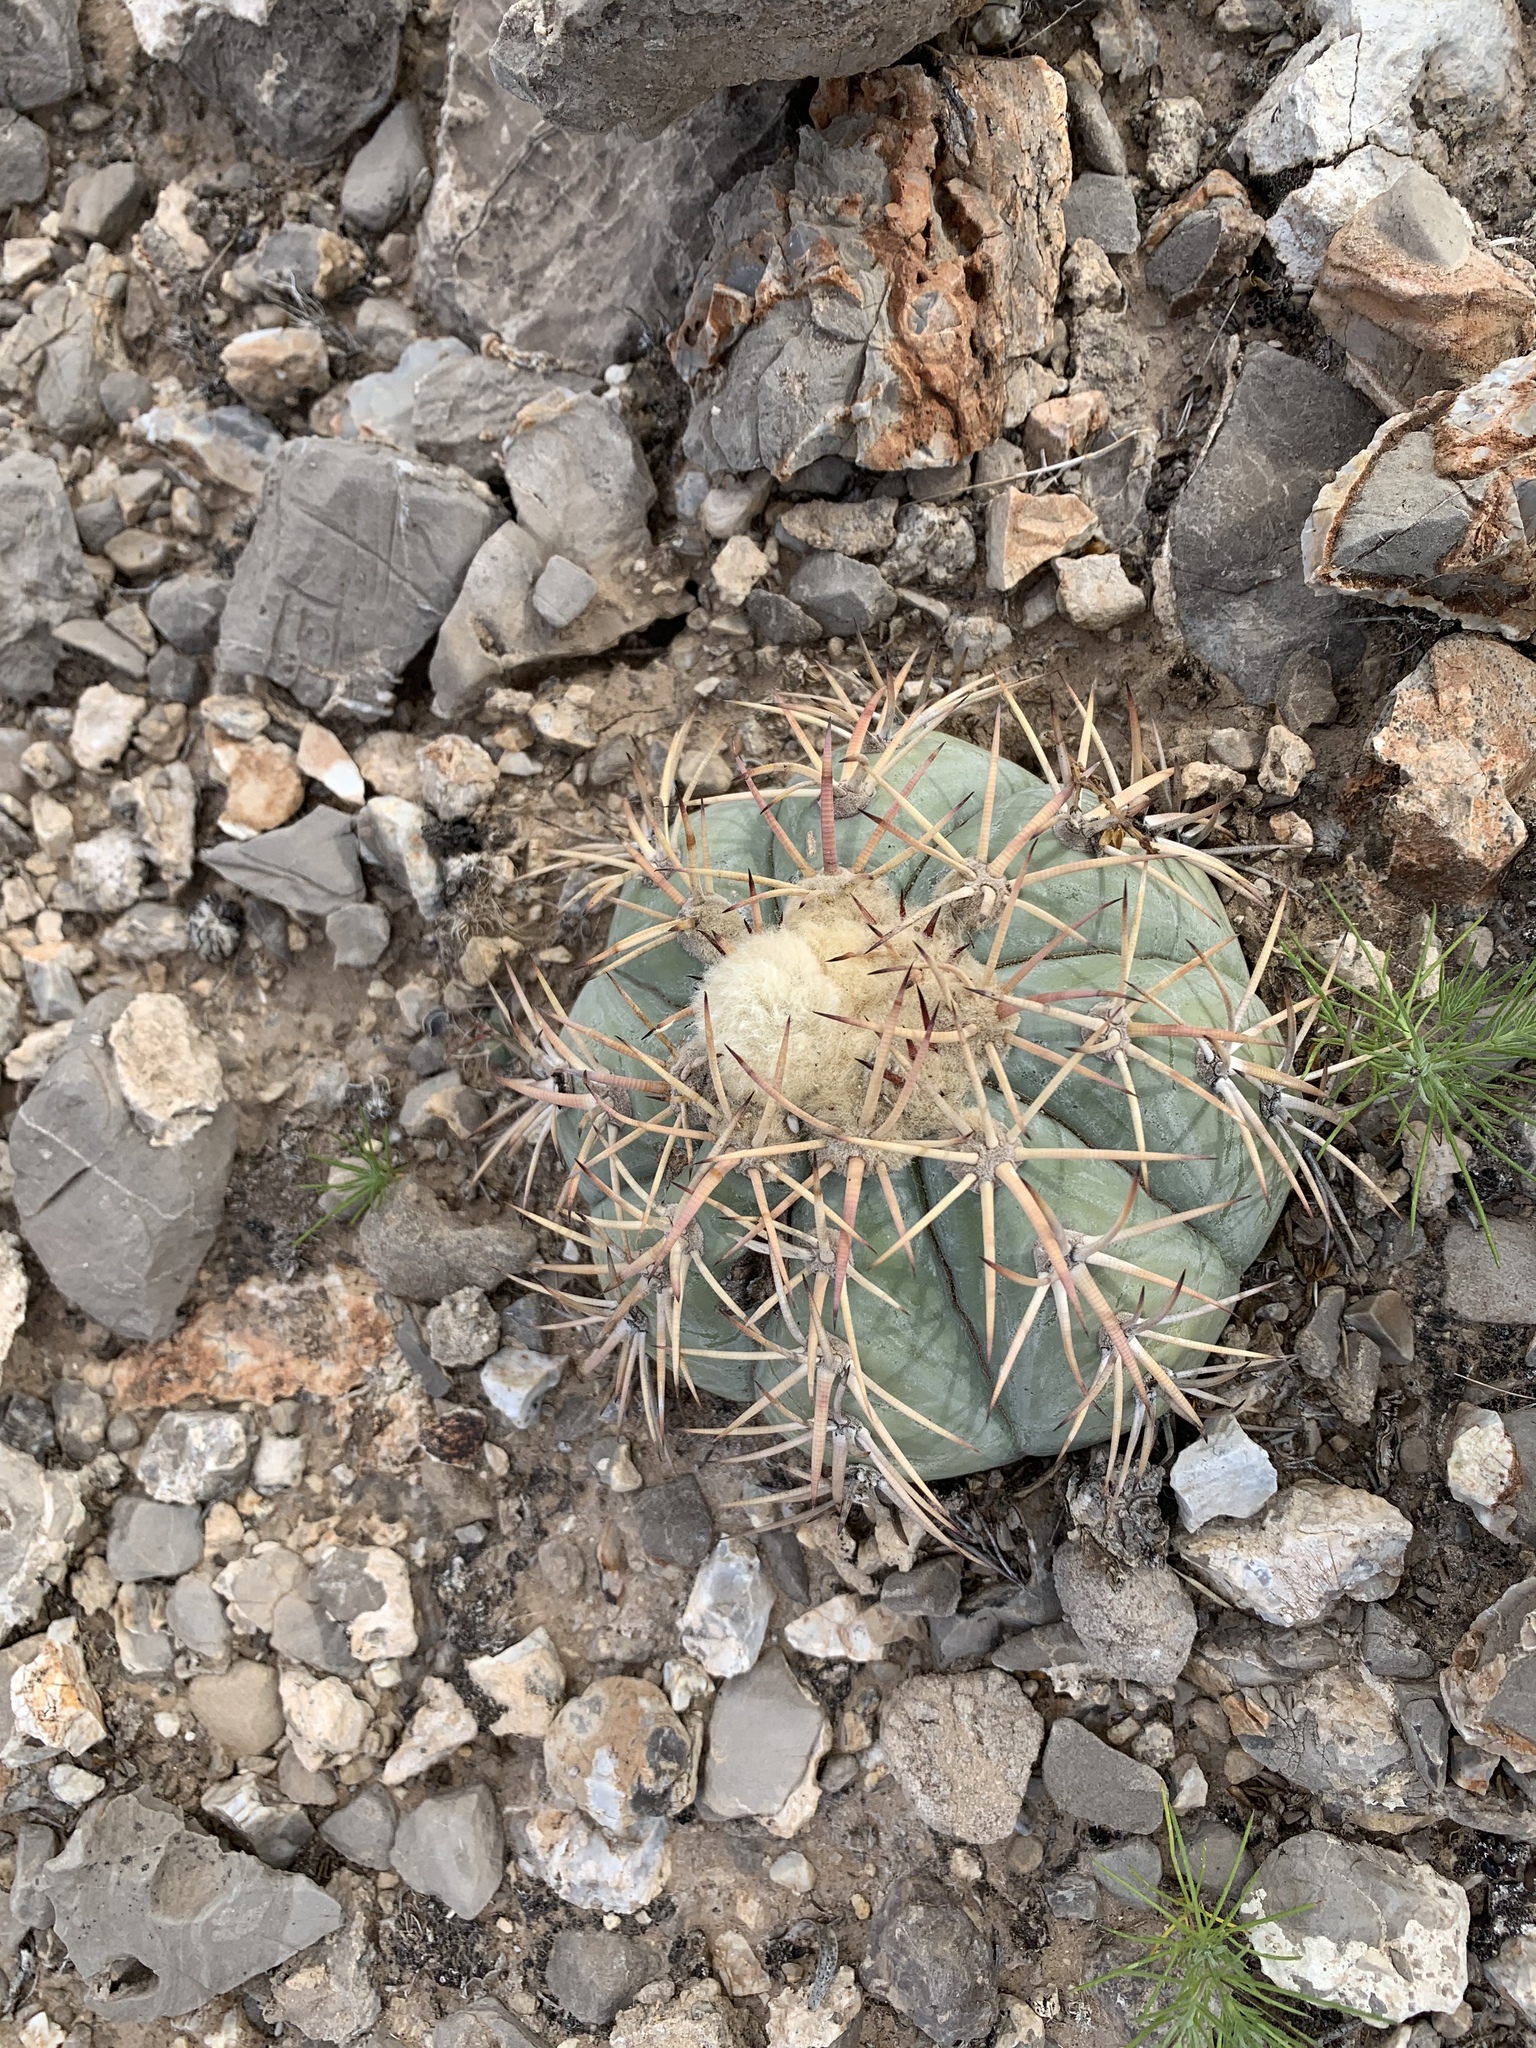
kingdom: Plantae
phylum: Tracheophyta
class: Magnoliopsida
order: Caryophyllales
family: Cactaceae
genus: Echinocactus
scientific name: Echinocactus horizonthalonius
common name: Devilshead
